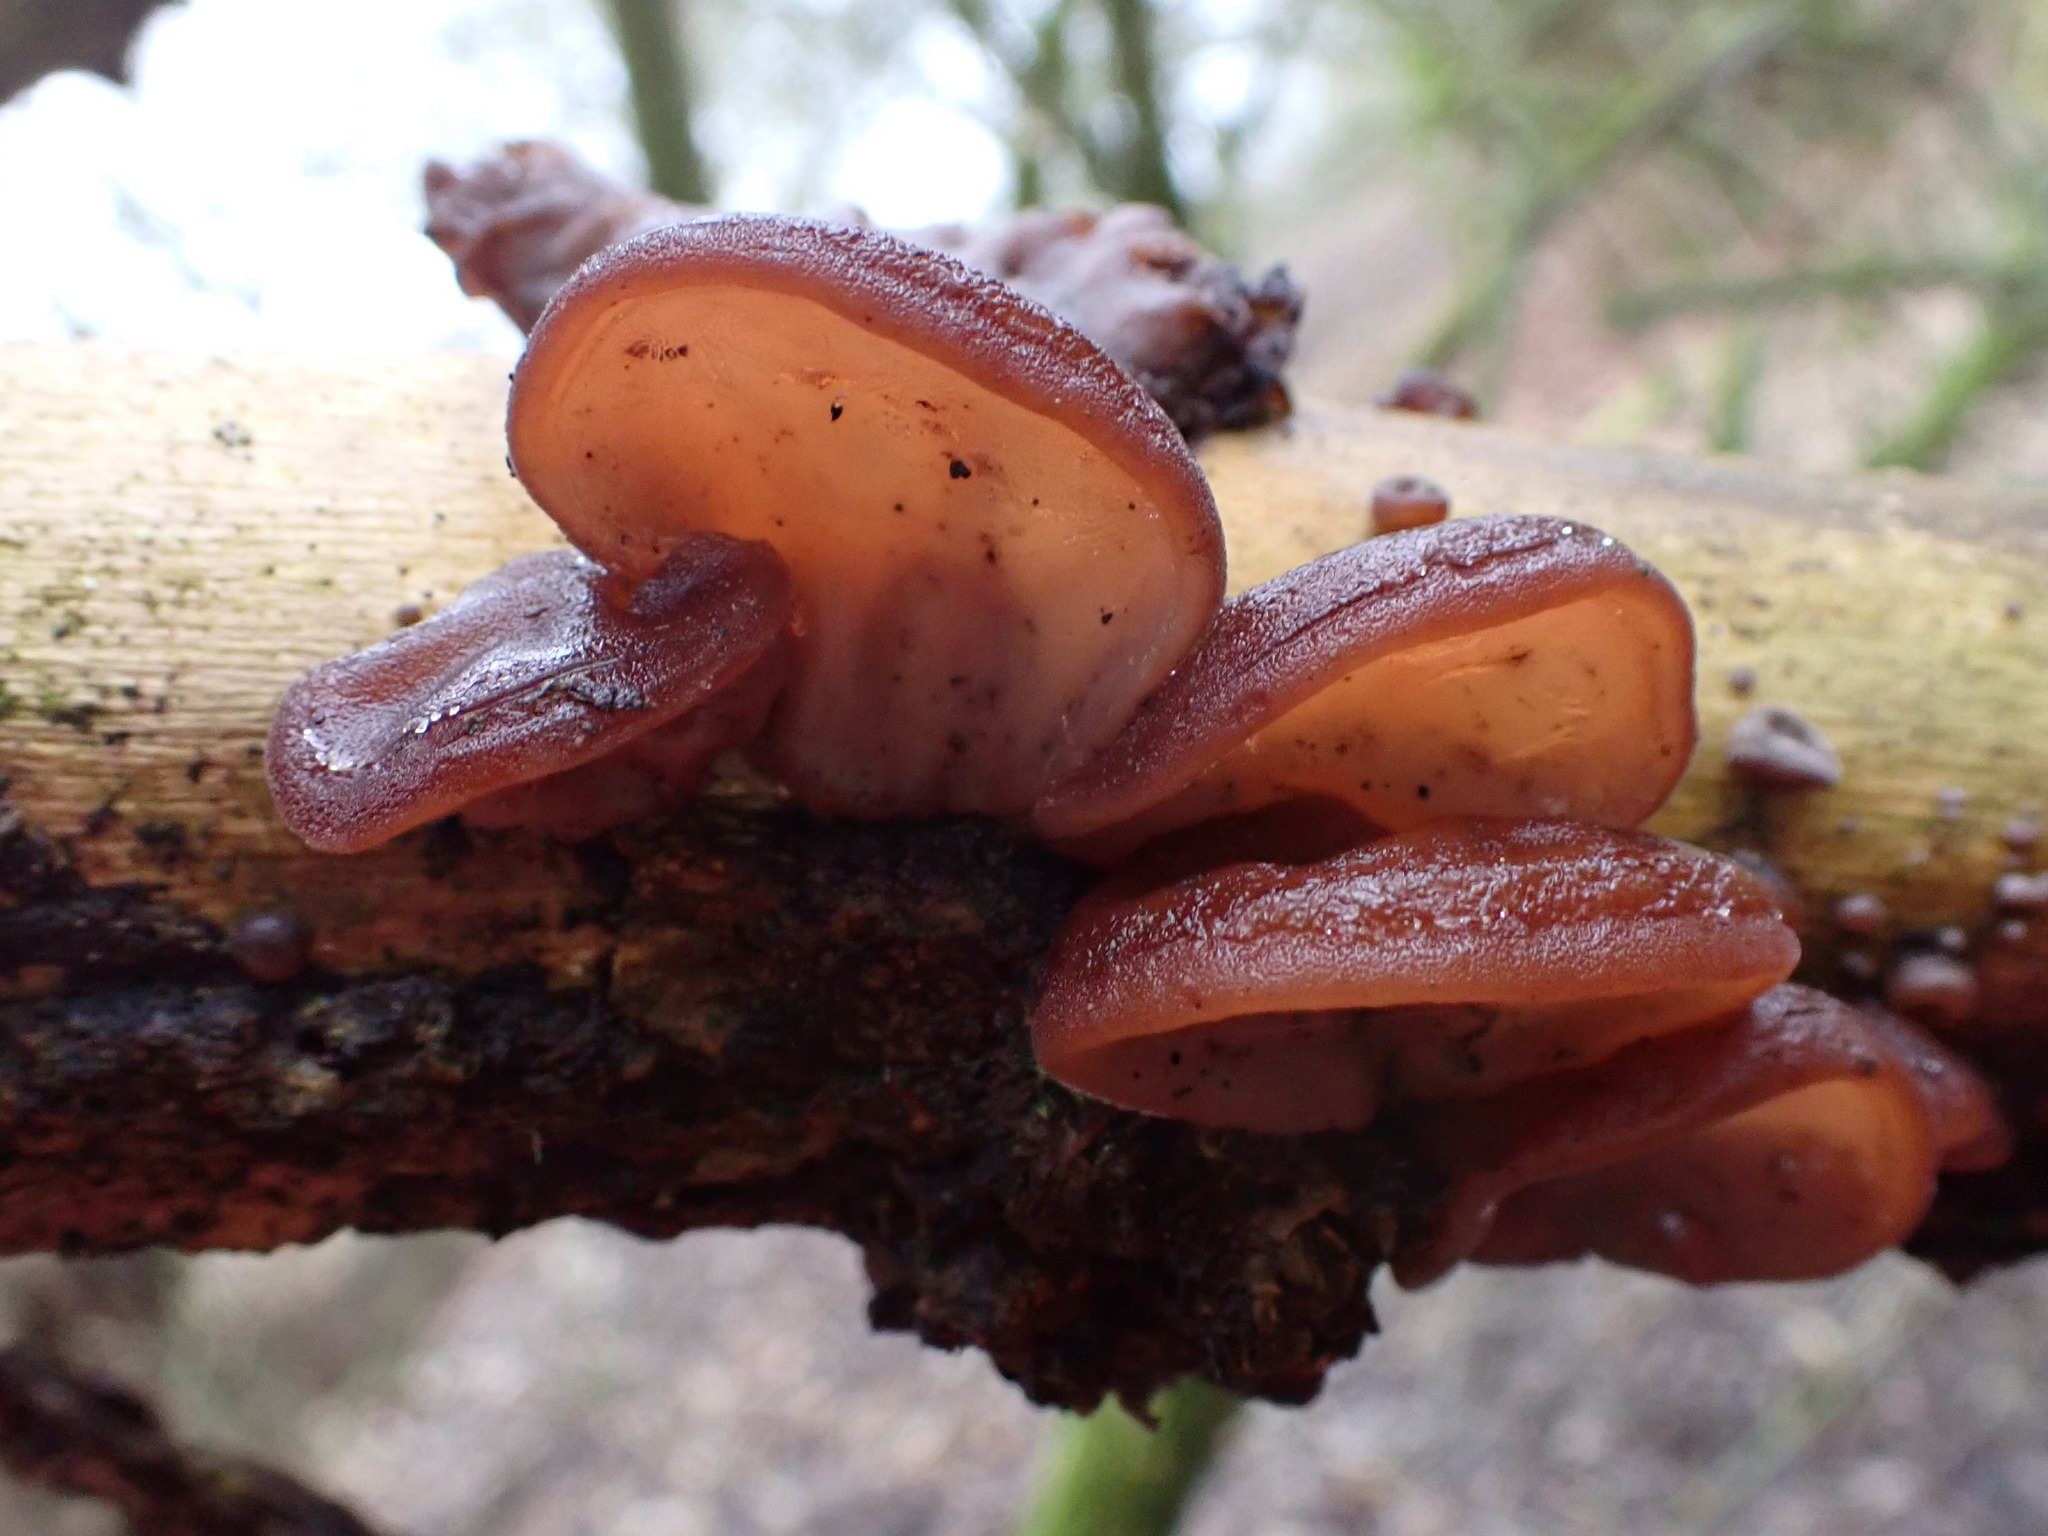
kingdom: Fungi
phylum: Basidiomycota
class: Agaricomycetes
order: Auriculariales
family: Auriculariaceae
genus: Auricularia
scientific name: Auricularia auricula-judae
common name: Jelly ear
